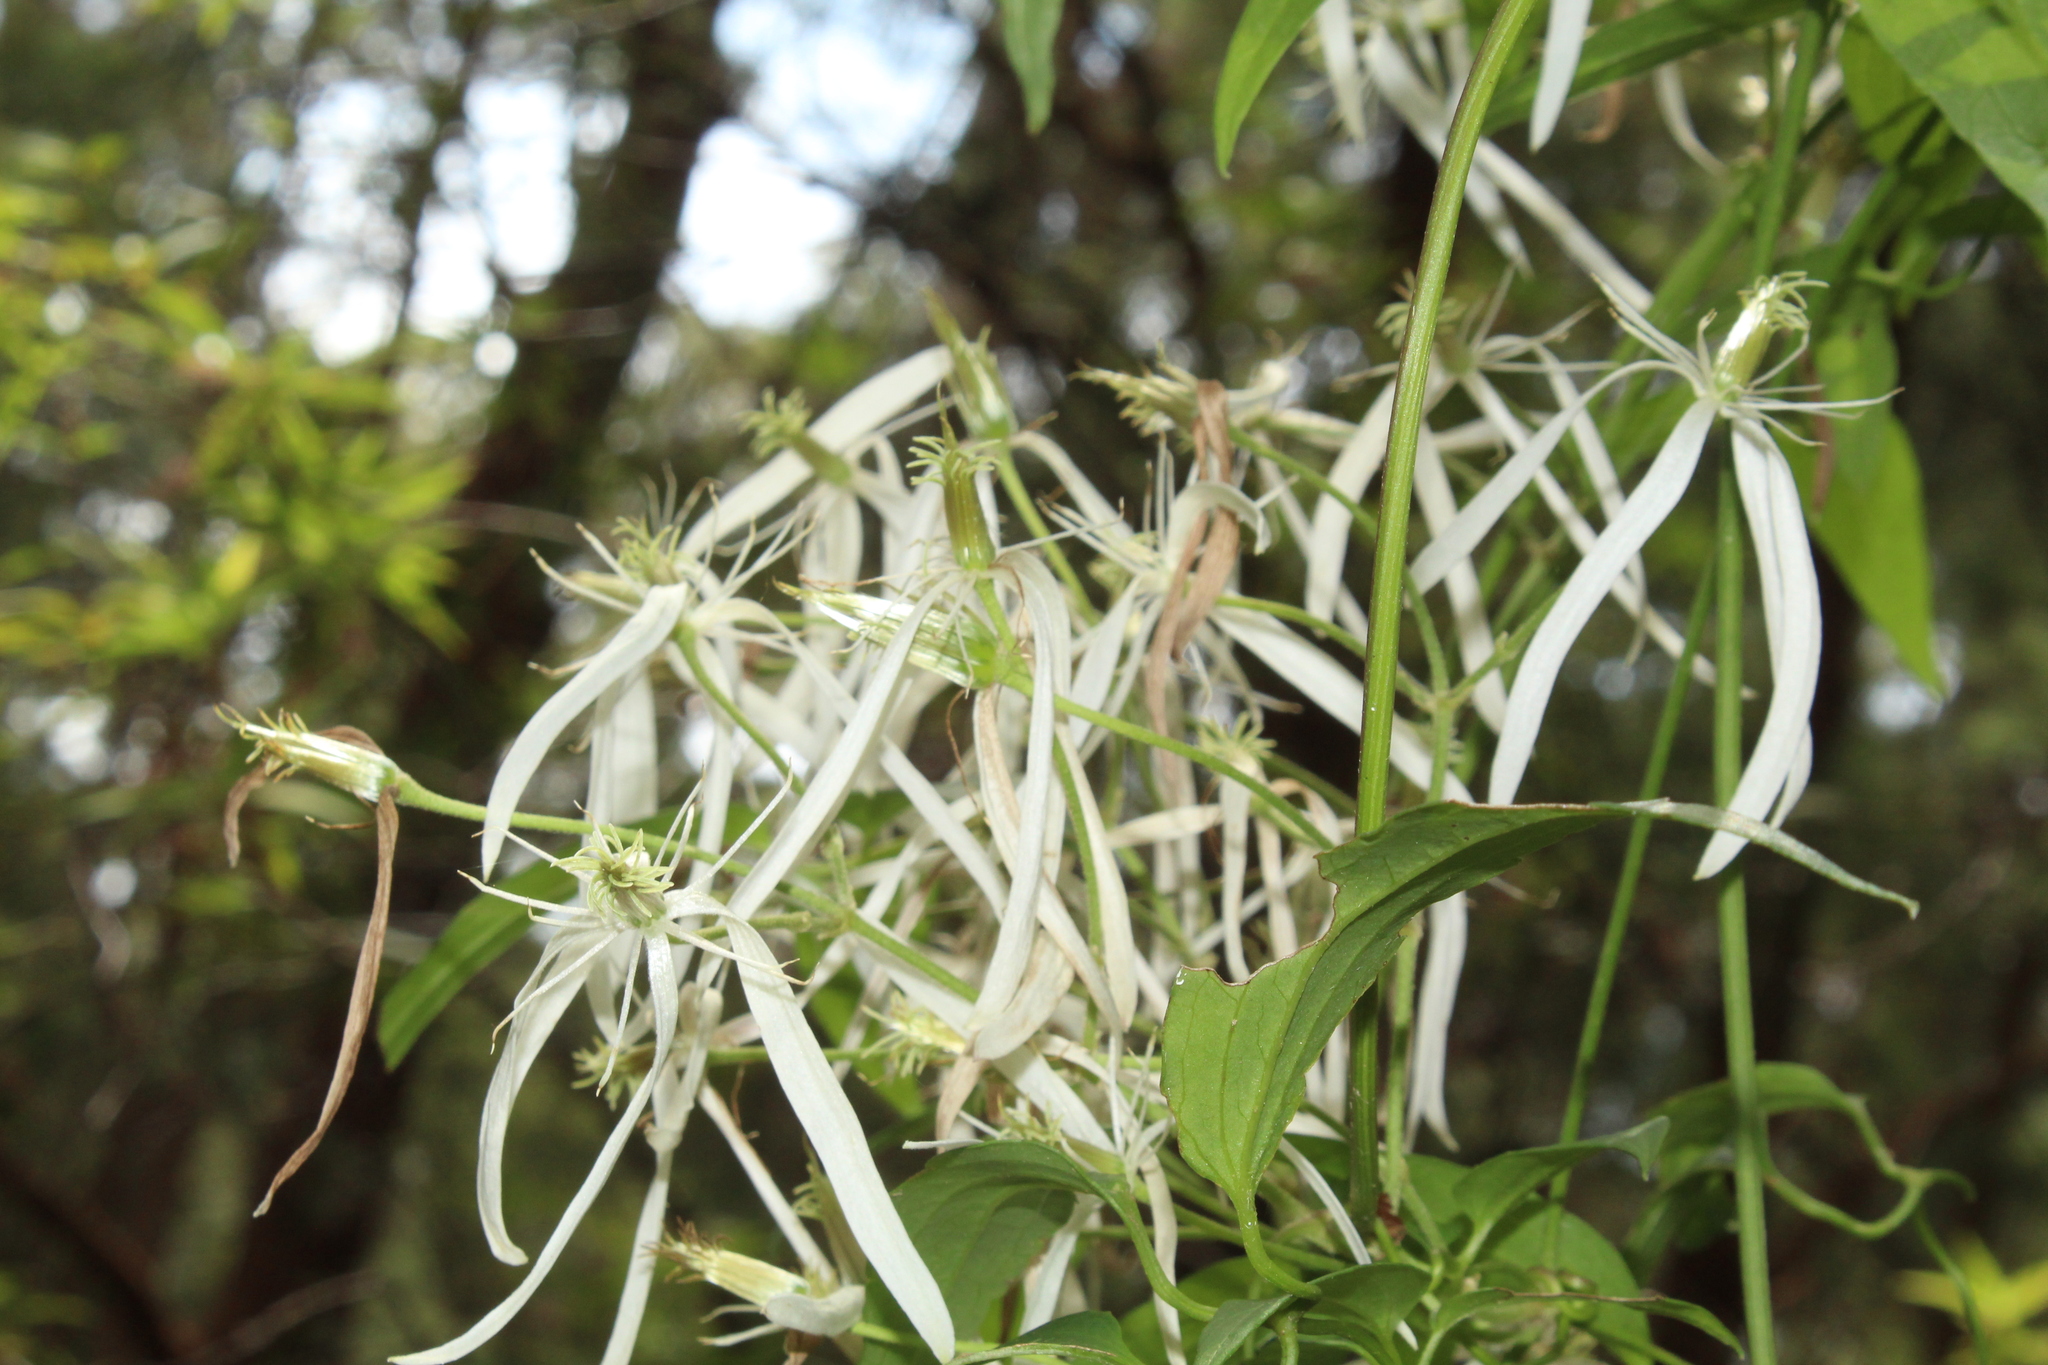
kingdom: Plantae
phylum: Tracheophyta
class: Magnoliopsida
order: Ranunculales
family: Ranunculaceae
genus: Clematis
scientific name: Clematis pubescens
